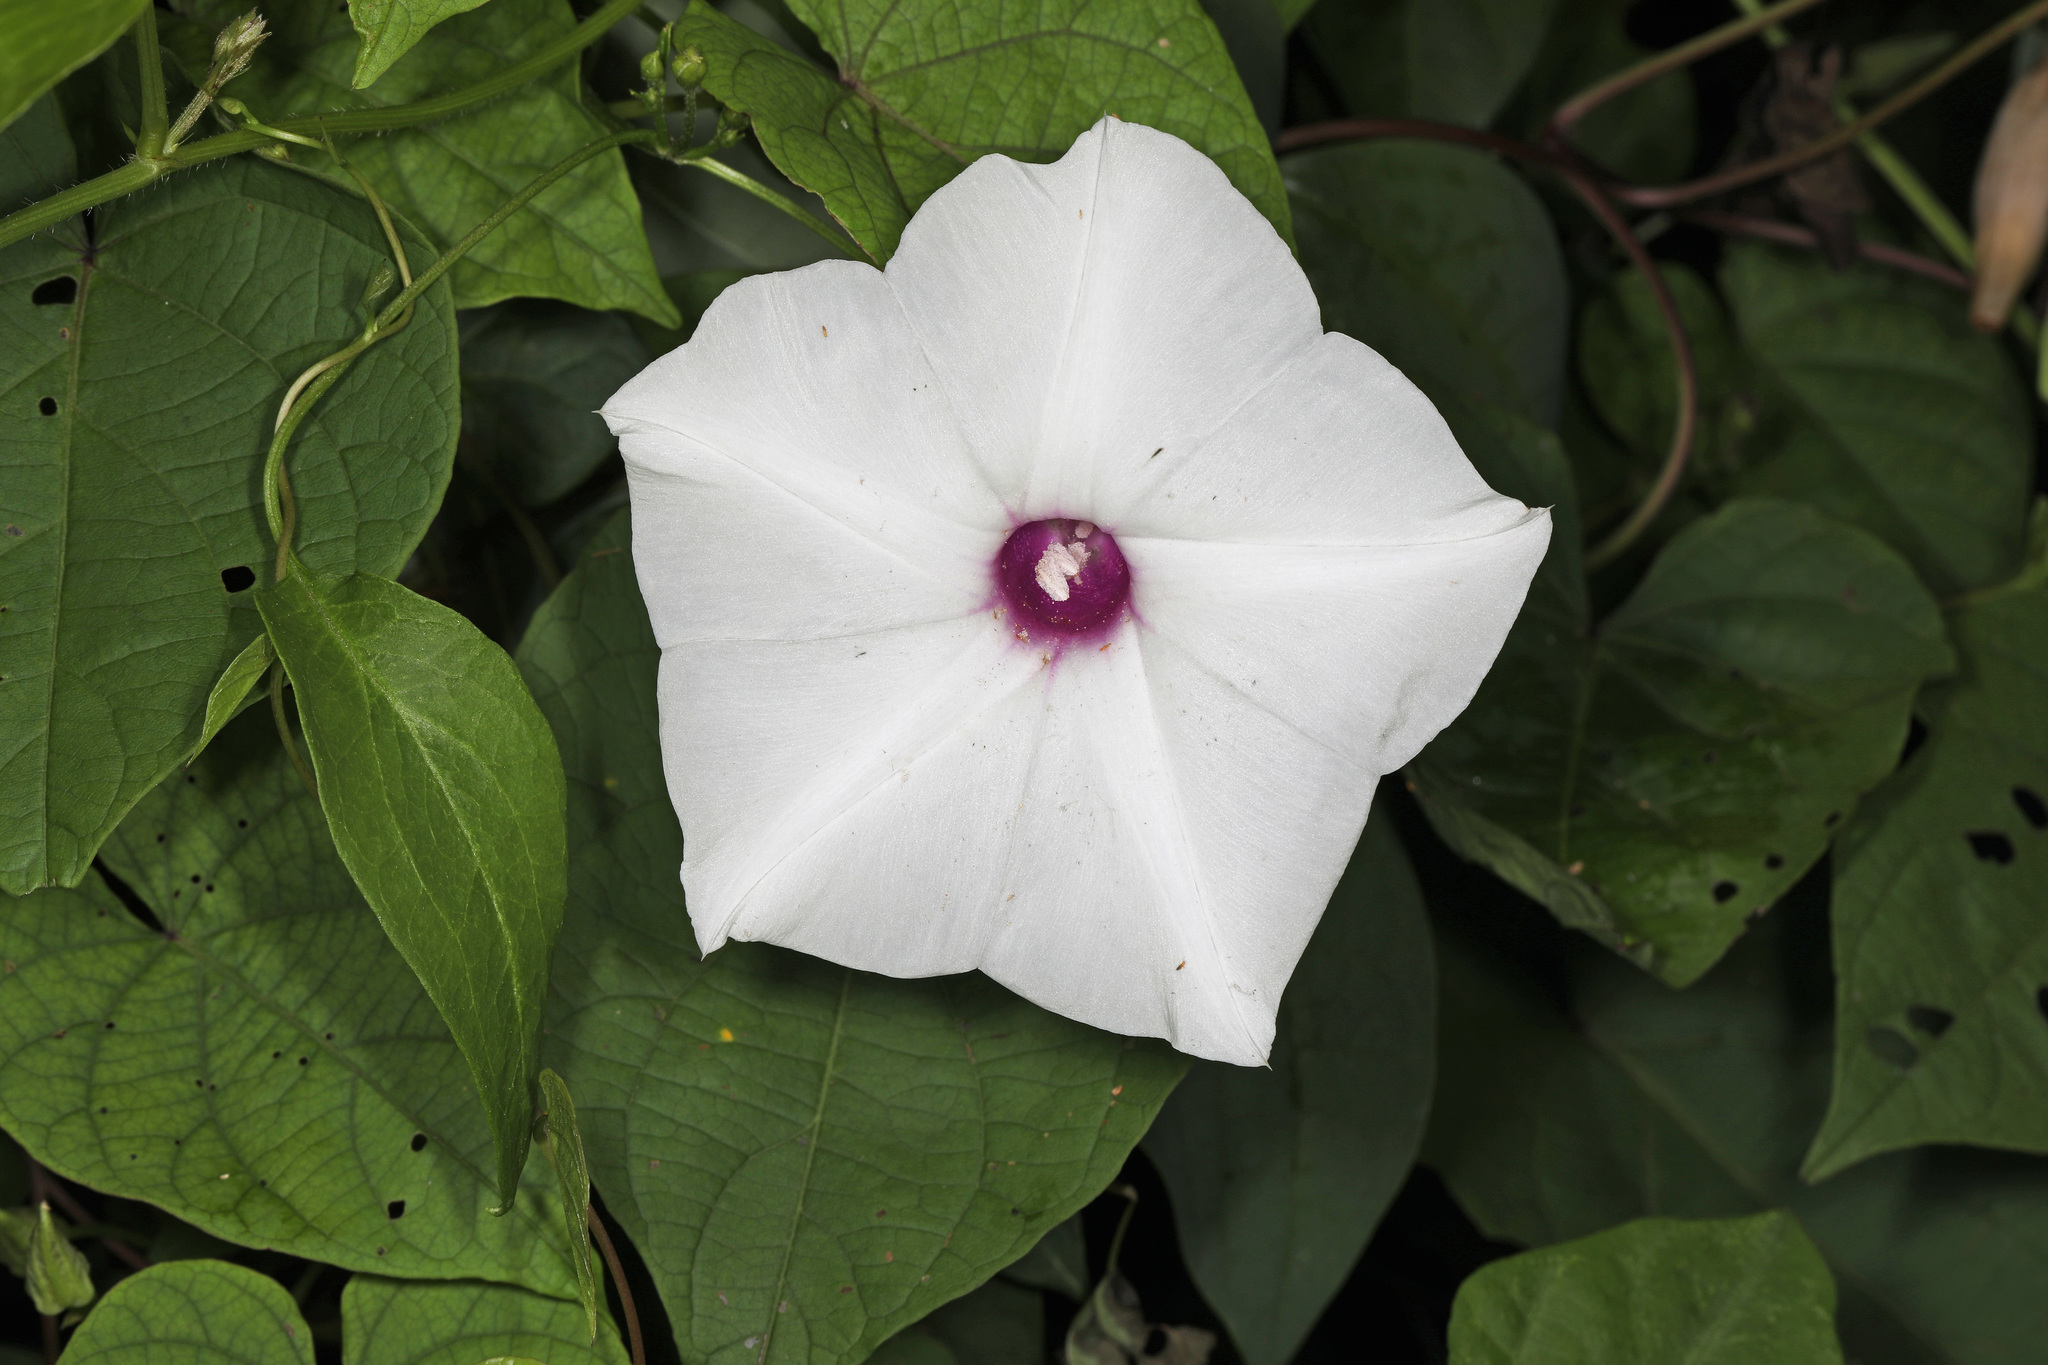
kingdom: Plantae
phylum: Tracheophyta
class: Magnoliopsida
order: Solanales
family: Convolvulaceae
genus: Ipomoea
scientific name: Ipomoea pandurata
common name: Man-of-the-earth
